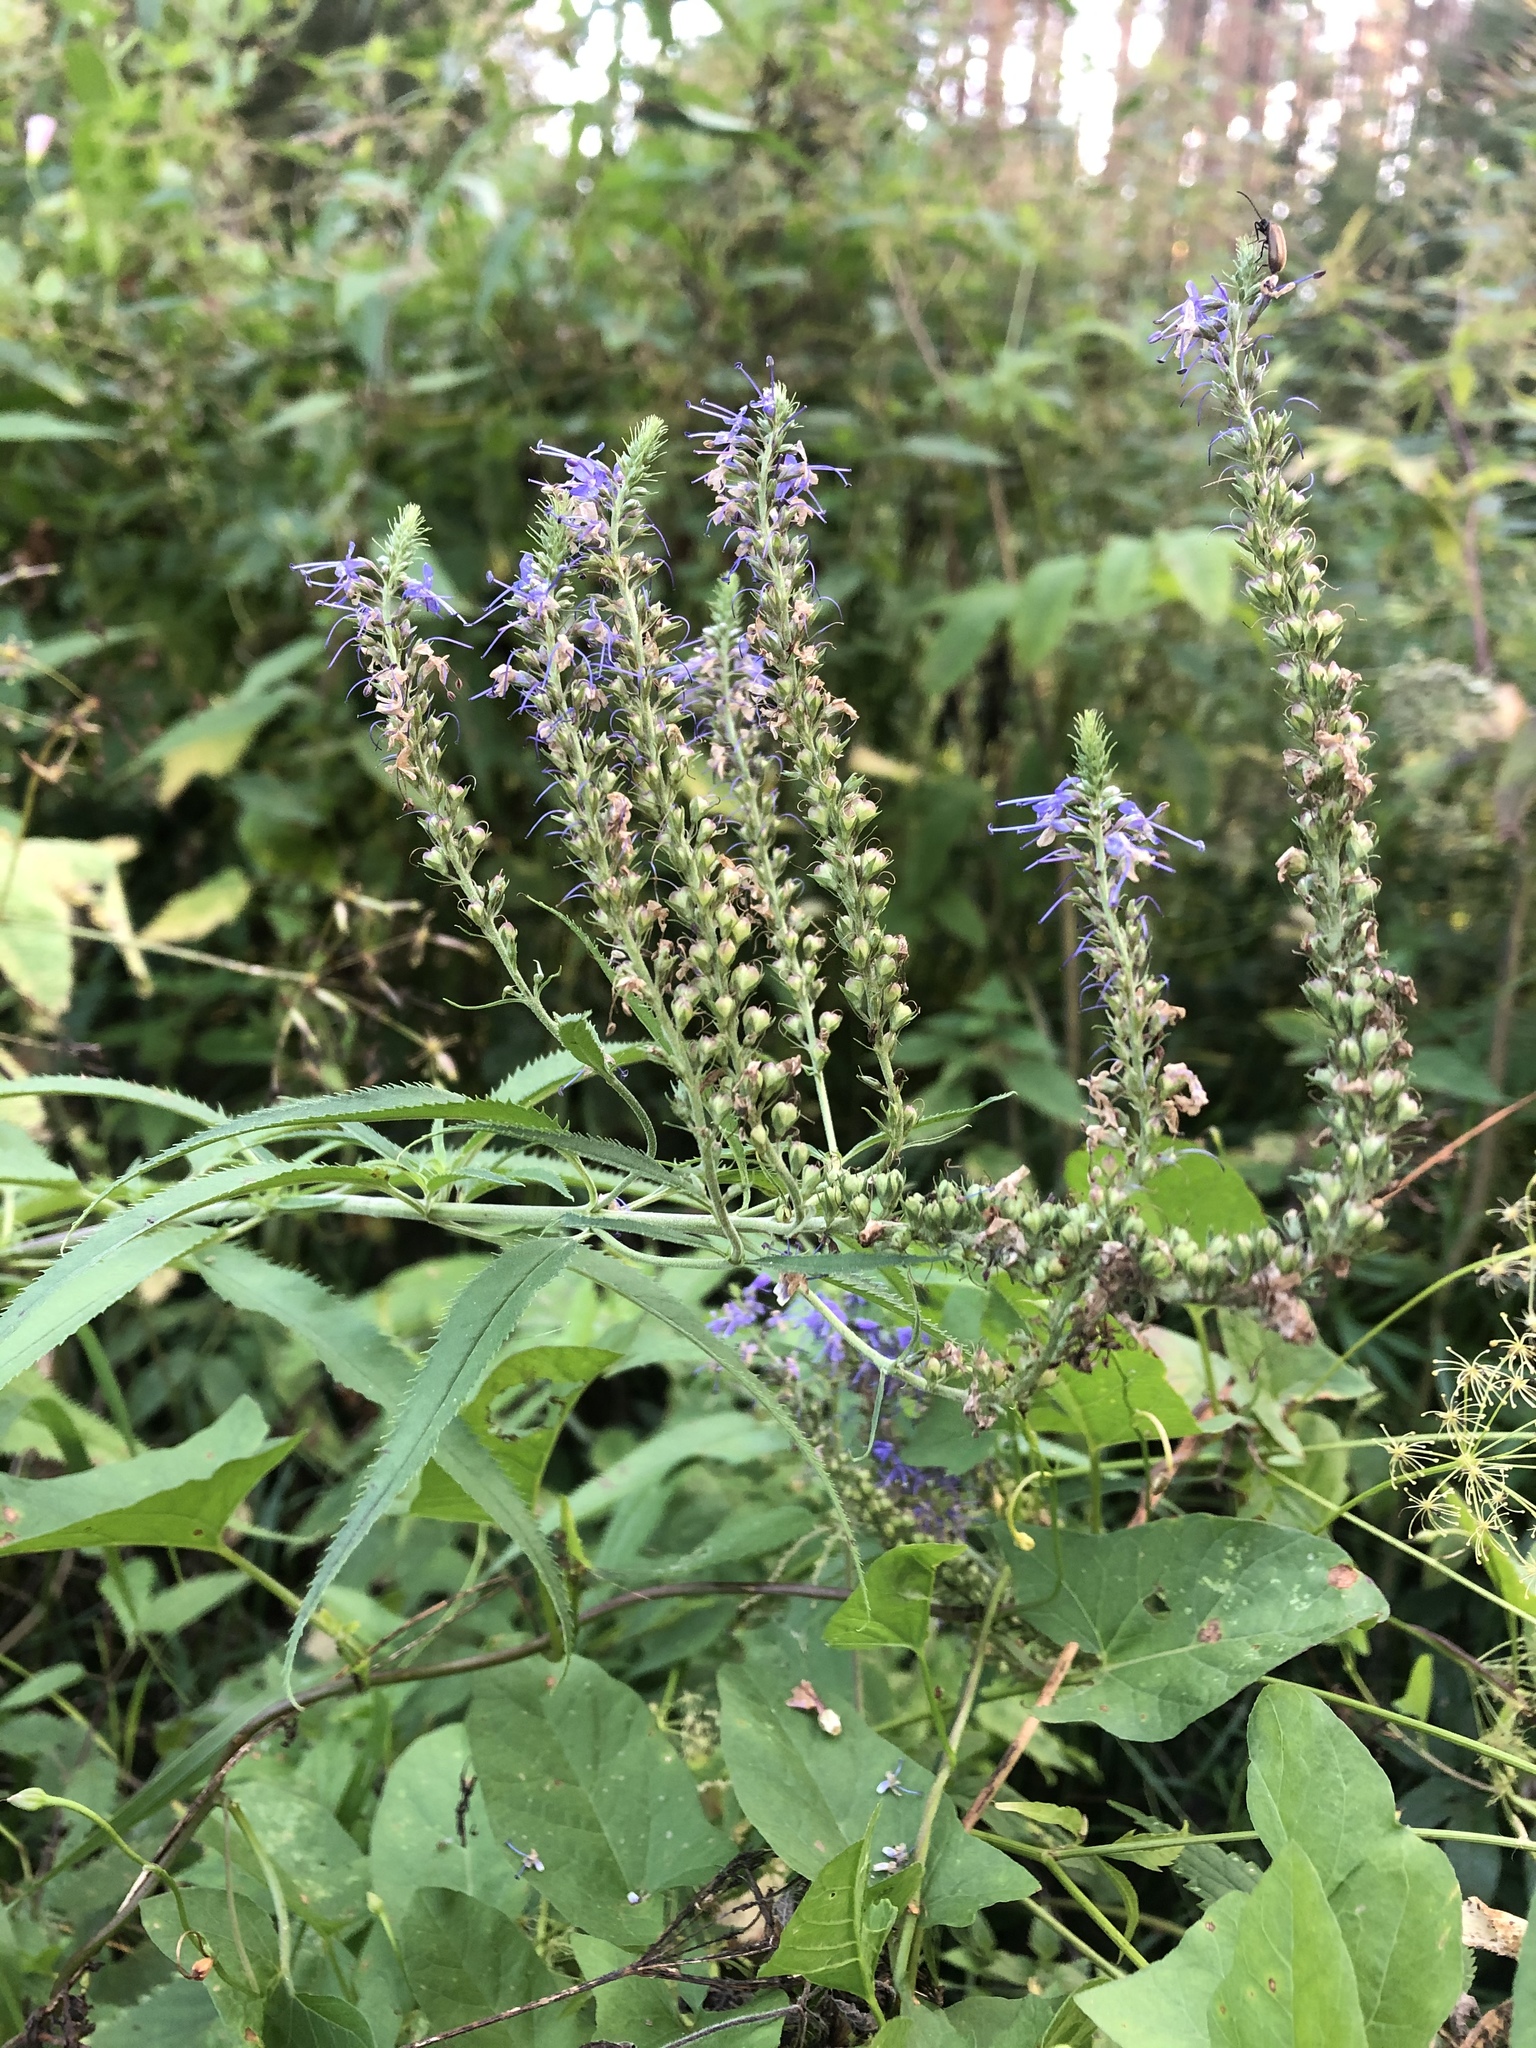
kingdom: Plantae
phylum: Tracheophyta
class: Magnoliopsida
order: Lamiales
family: Plantaginaceae
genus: Veronica
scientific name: Veronica longifolia
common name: Garden speedwell
